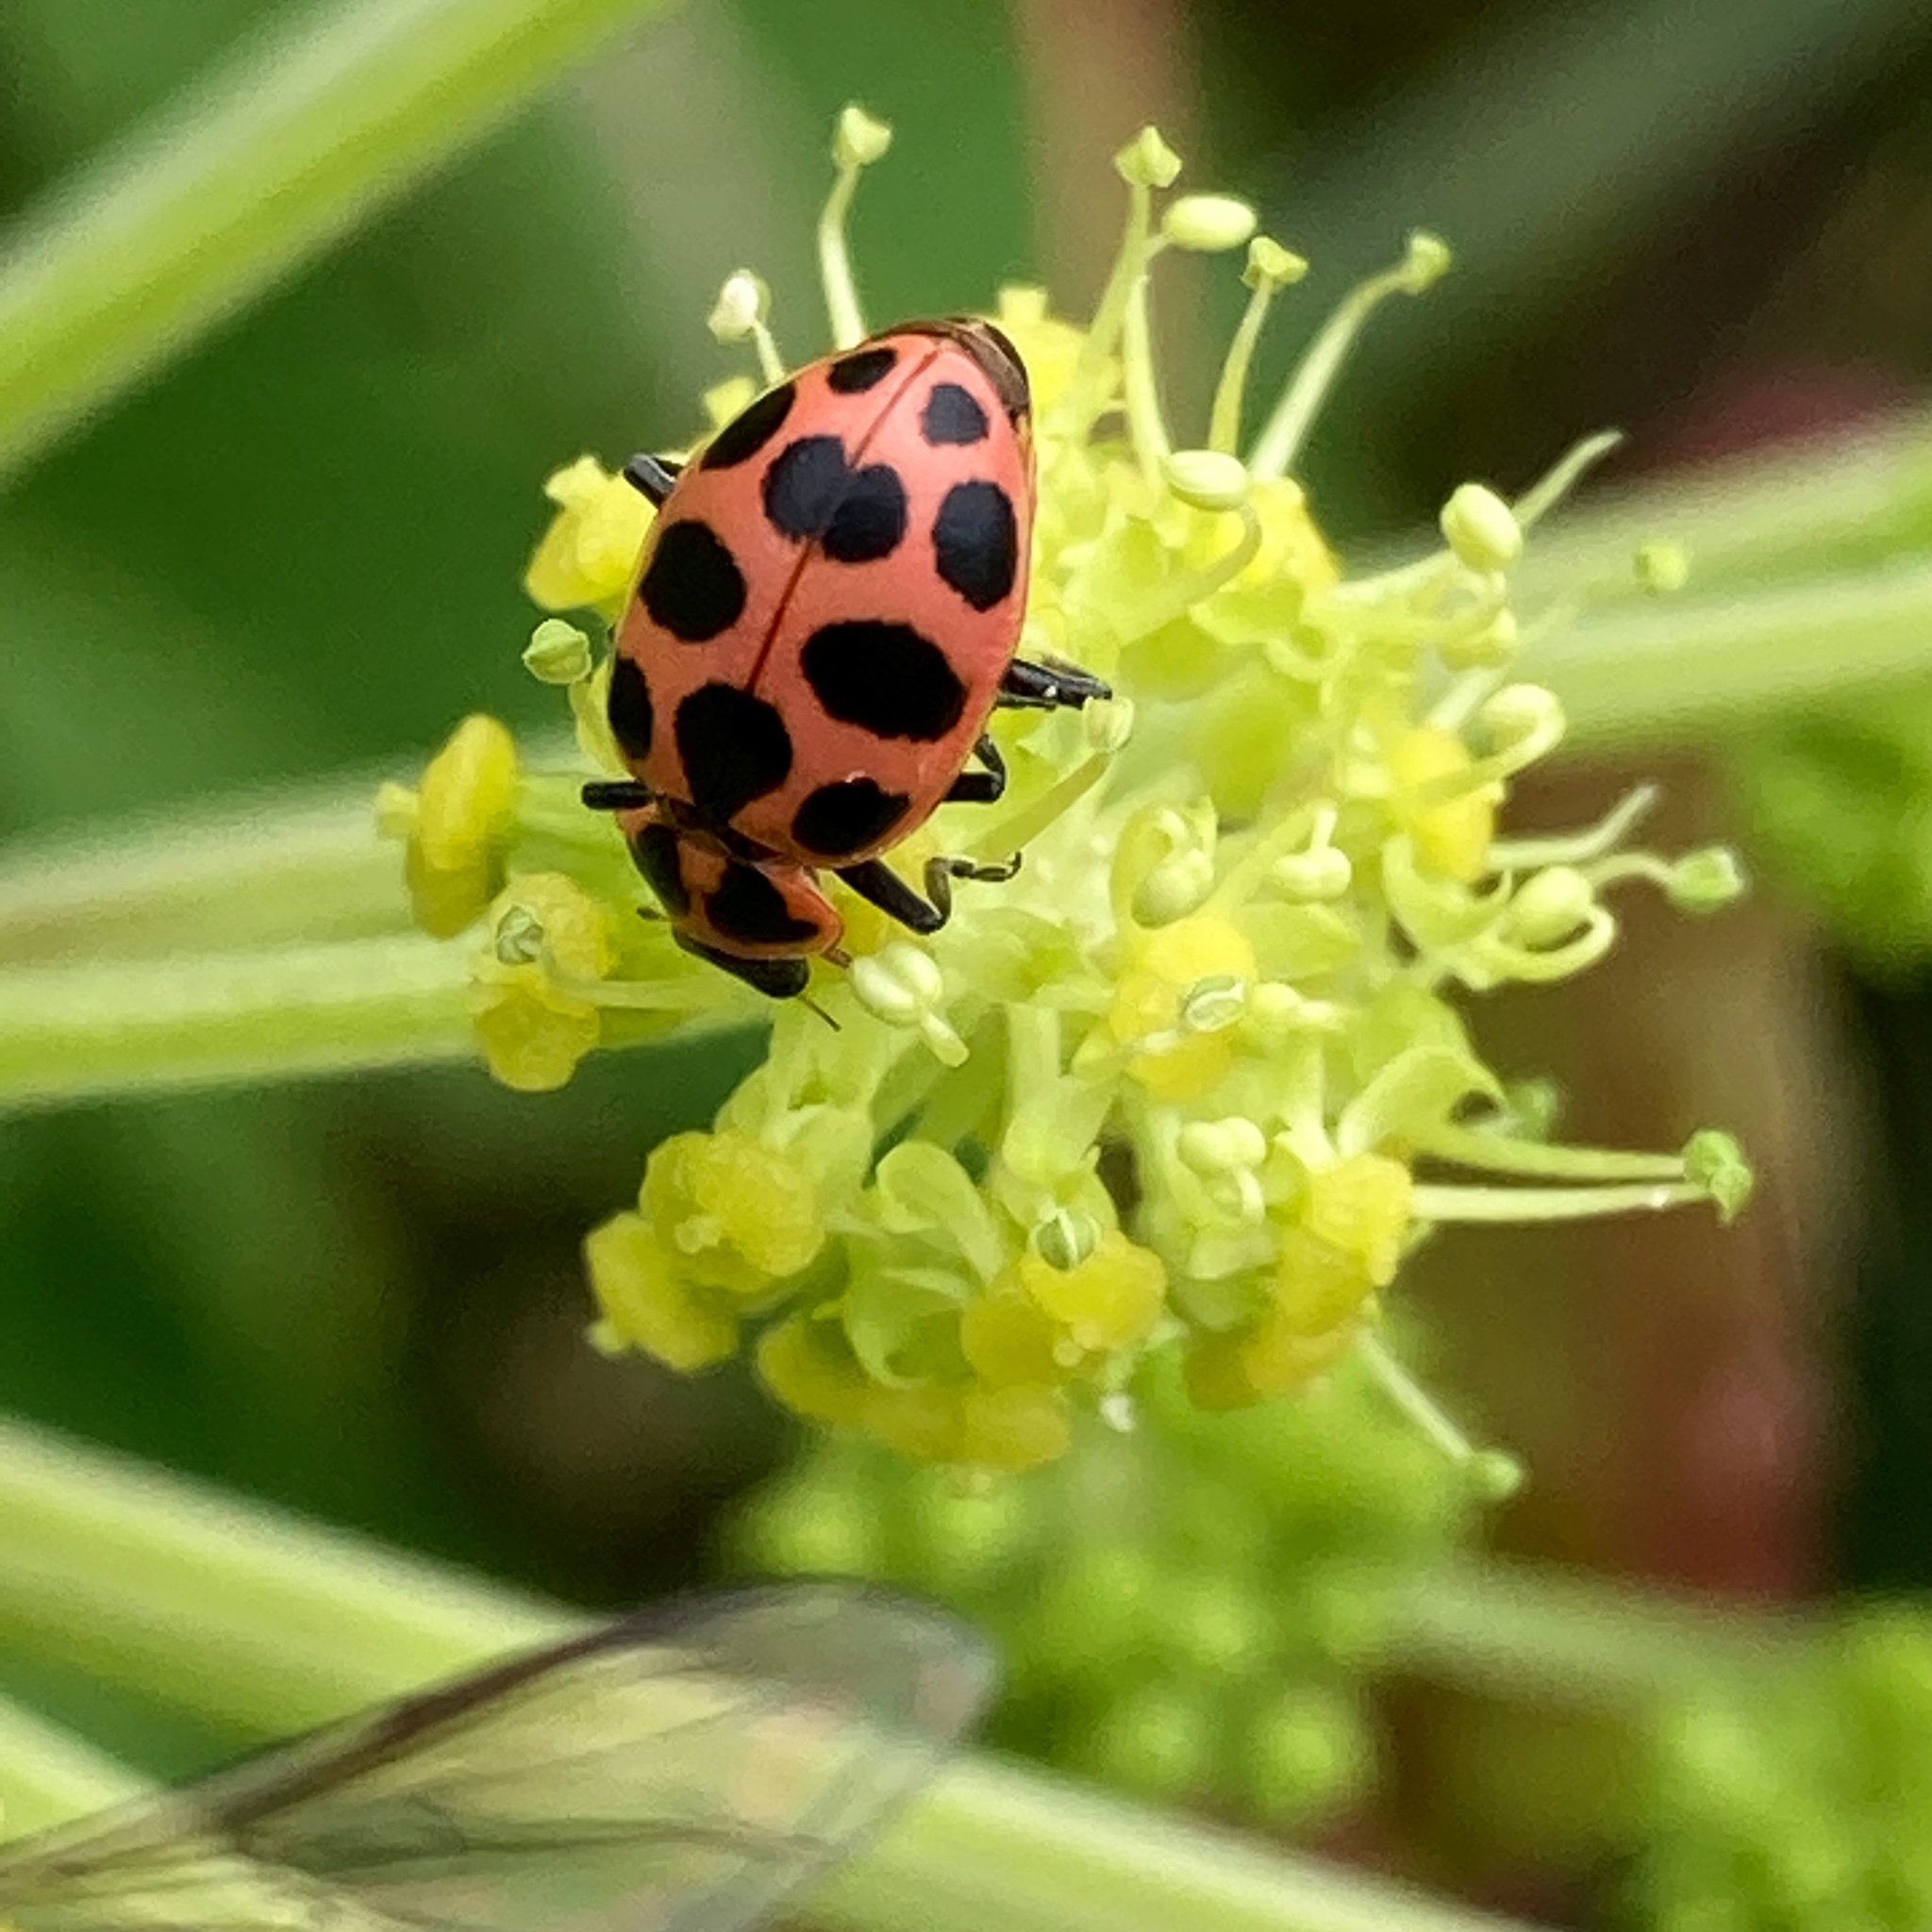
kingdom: Animalia
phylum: Arthropoda
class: Insecta
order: Coleoptera
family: Coccinellidae
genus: Coleomegilla
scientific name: Coleomegilla maculata
